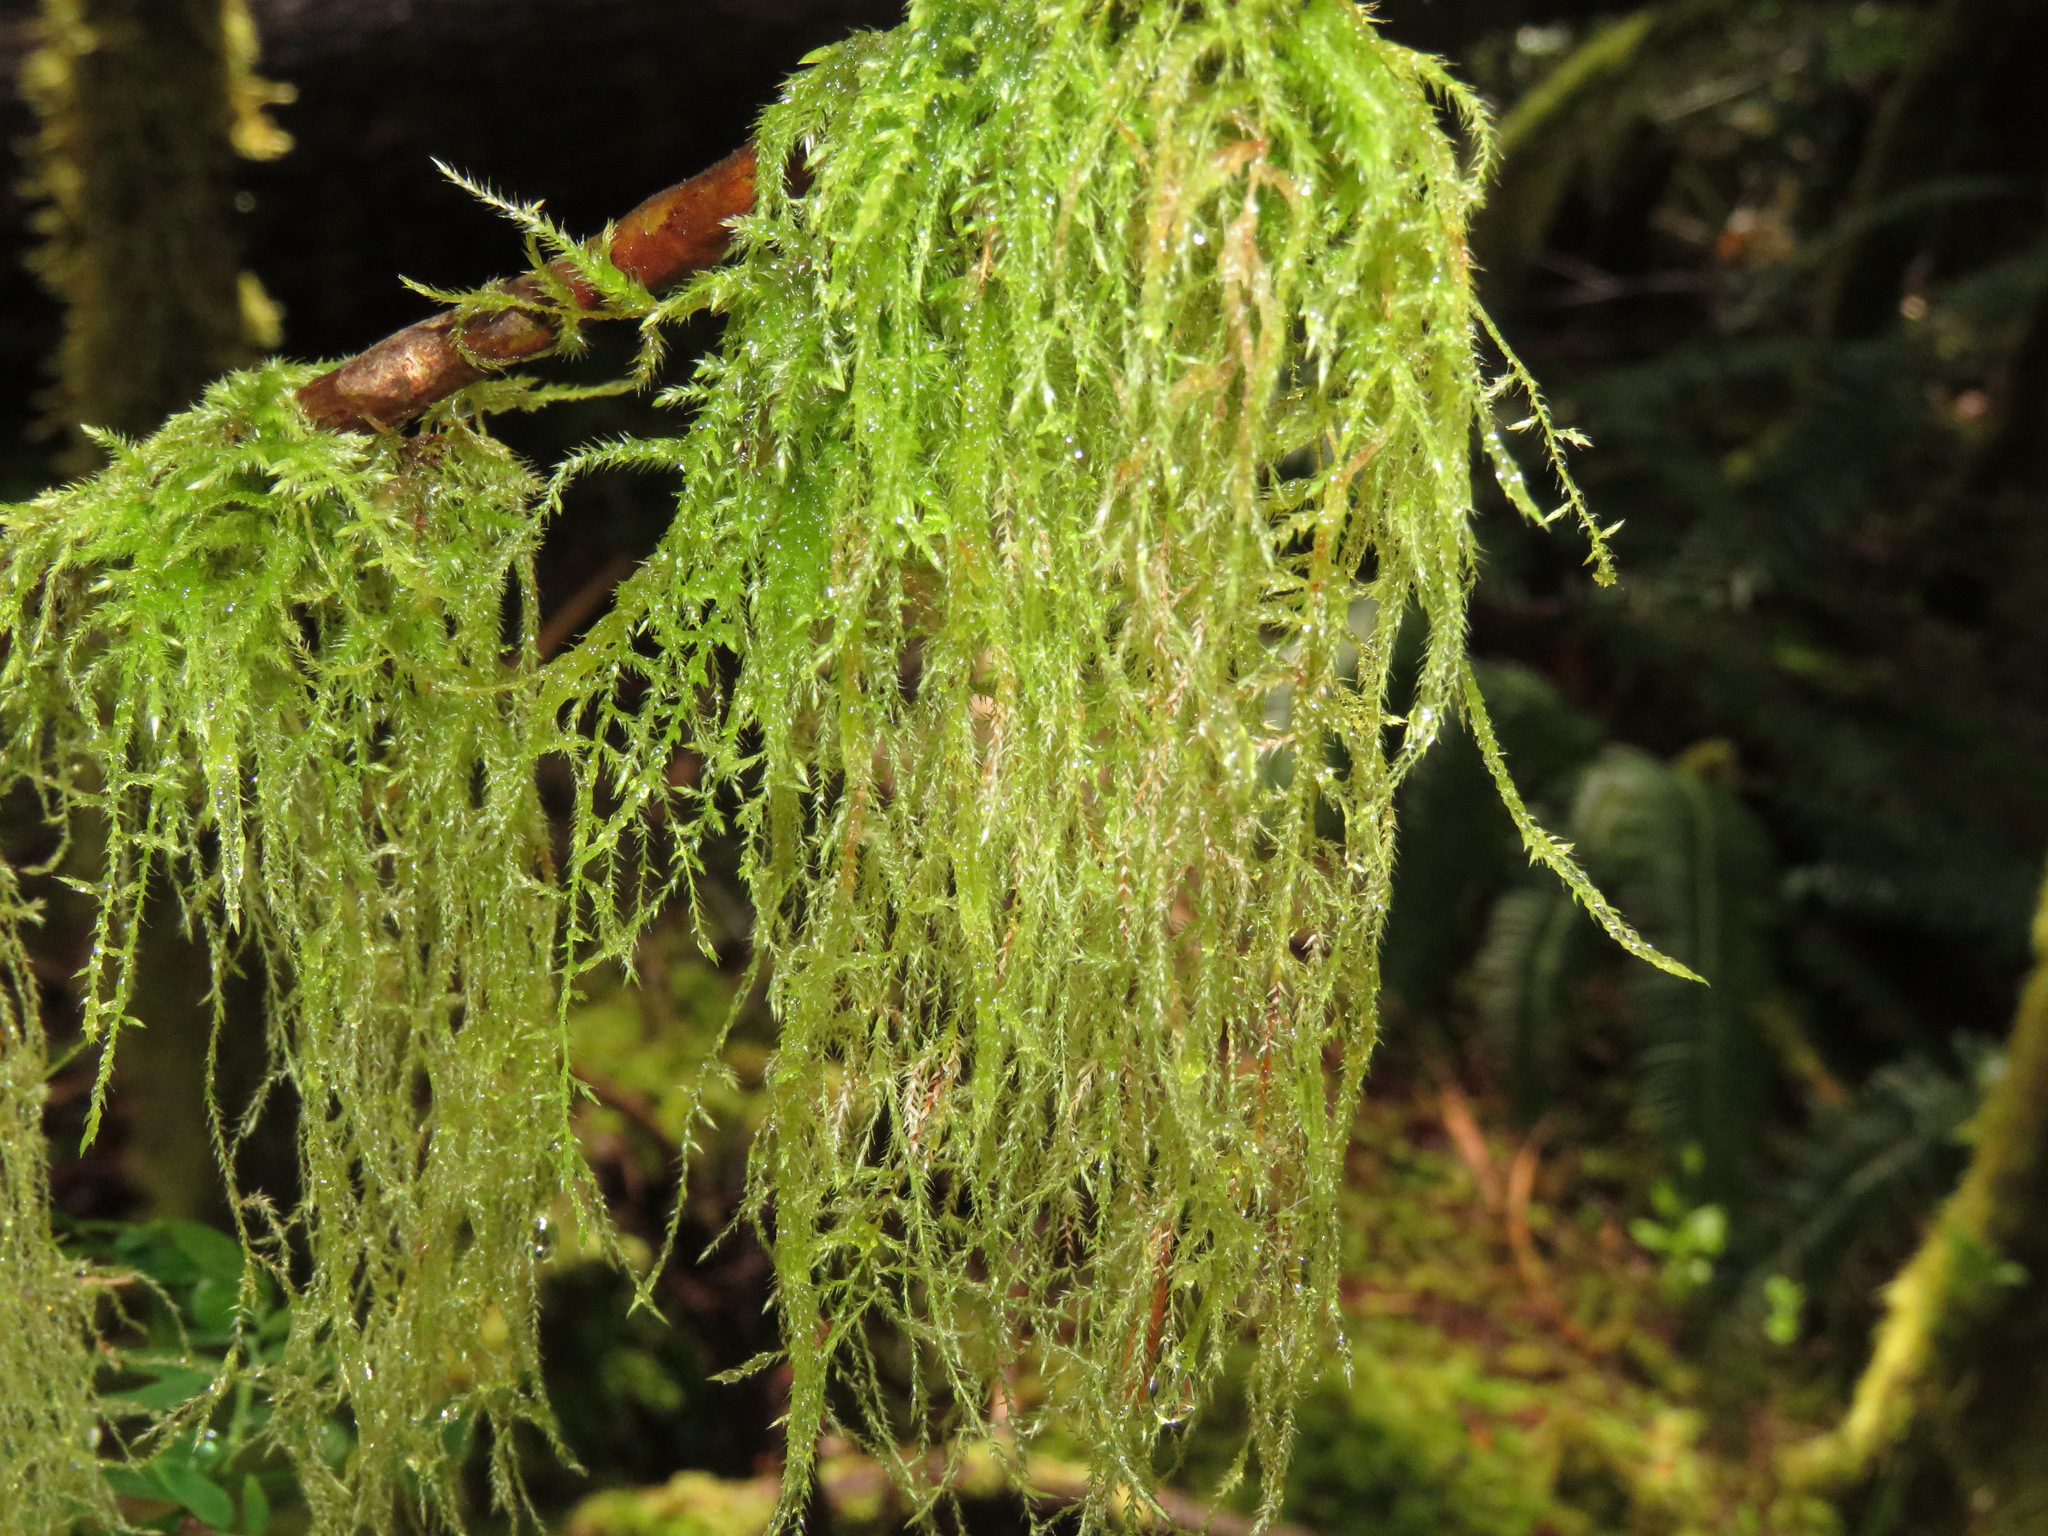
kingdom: Plantae
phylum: Bryophyta
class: Bryopsida
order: Hypnales
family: Lembophyllaceae
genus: Pseudisothecium
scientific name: Pseudisothecium stoloniferum
